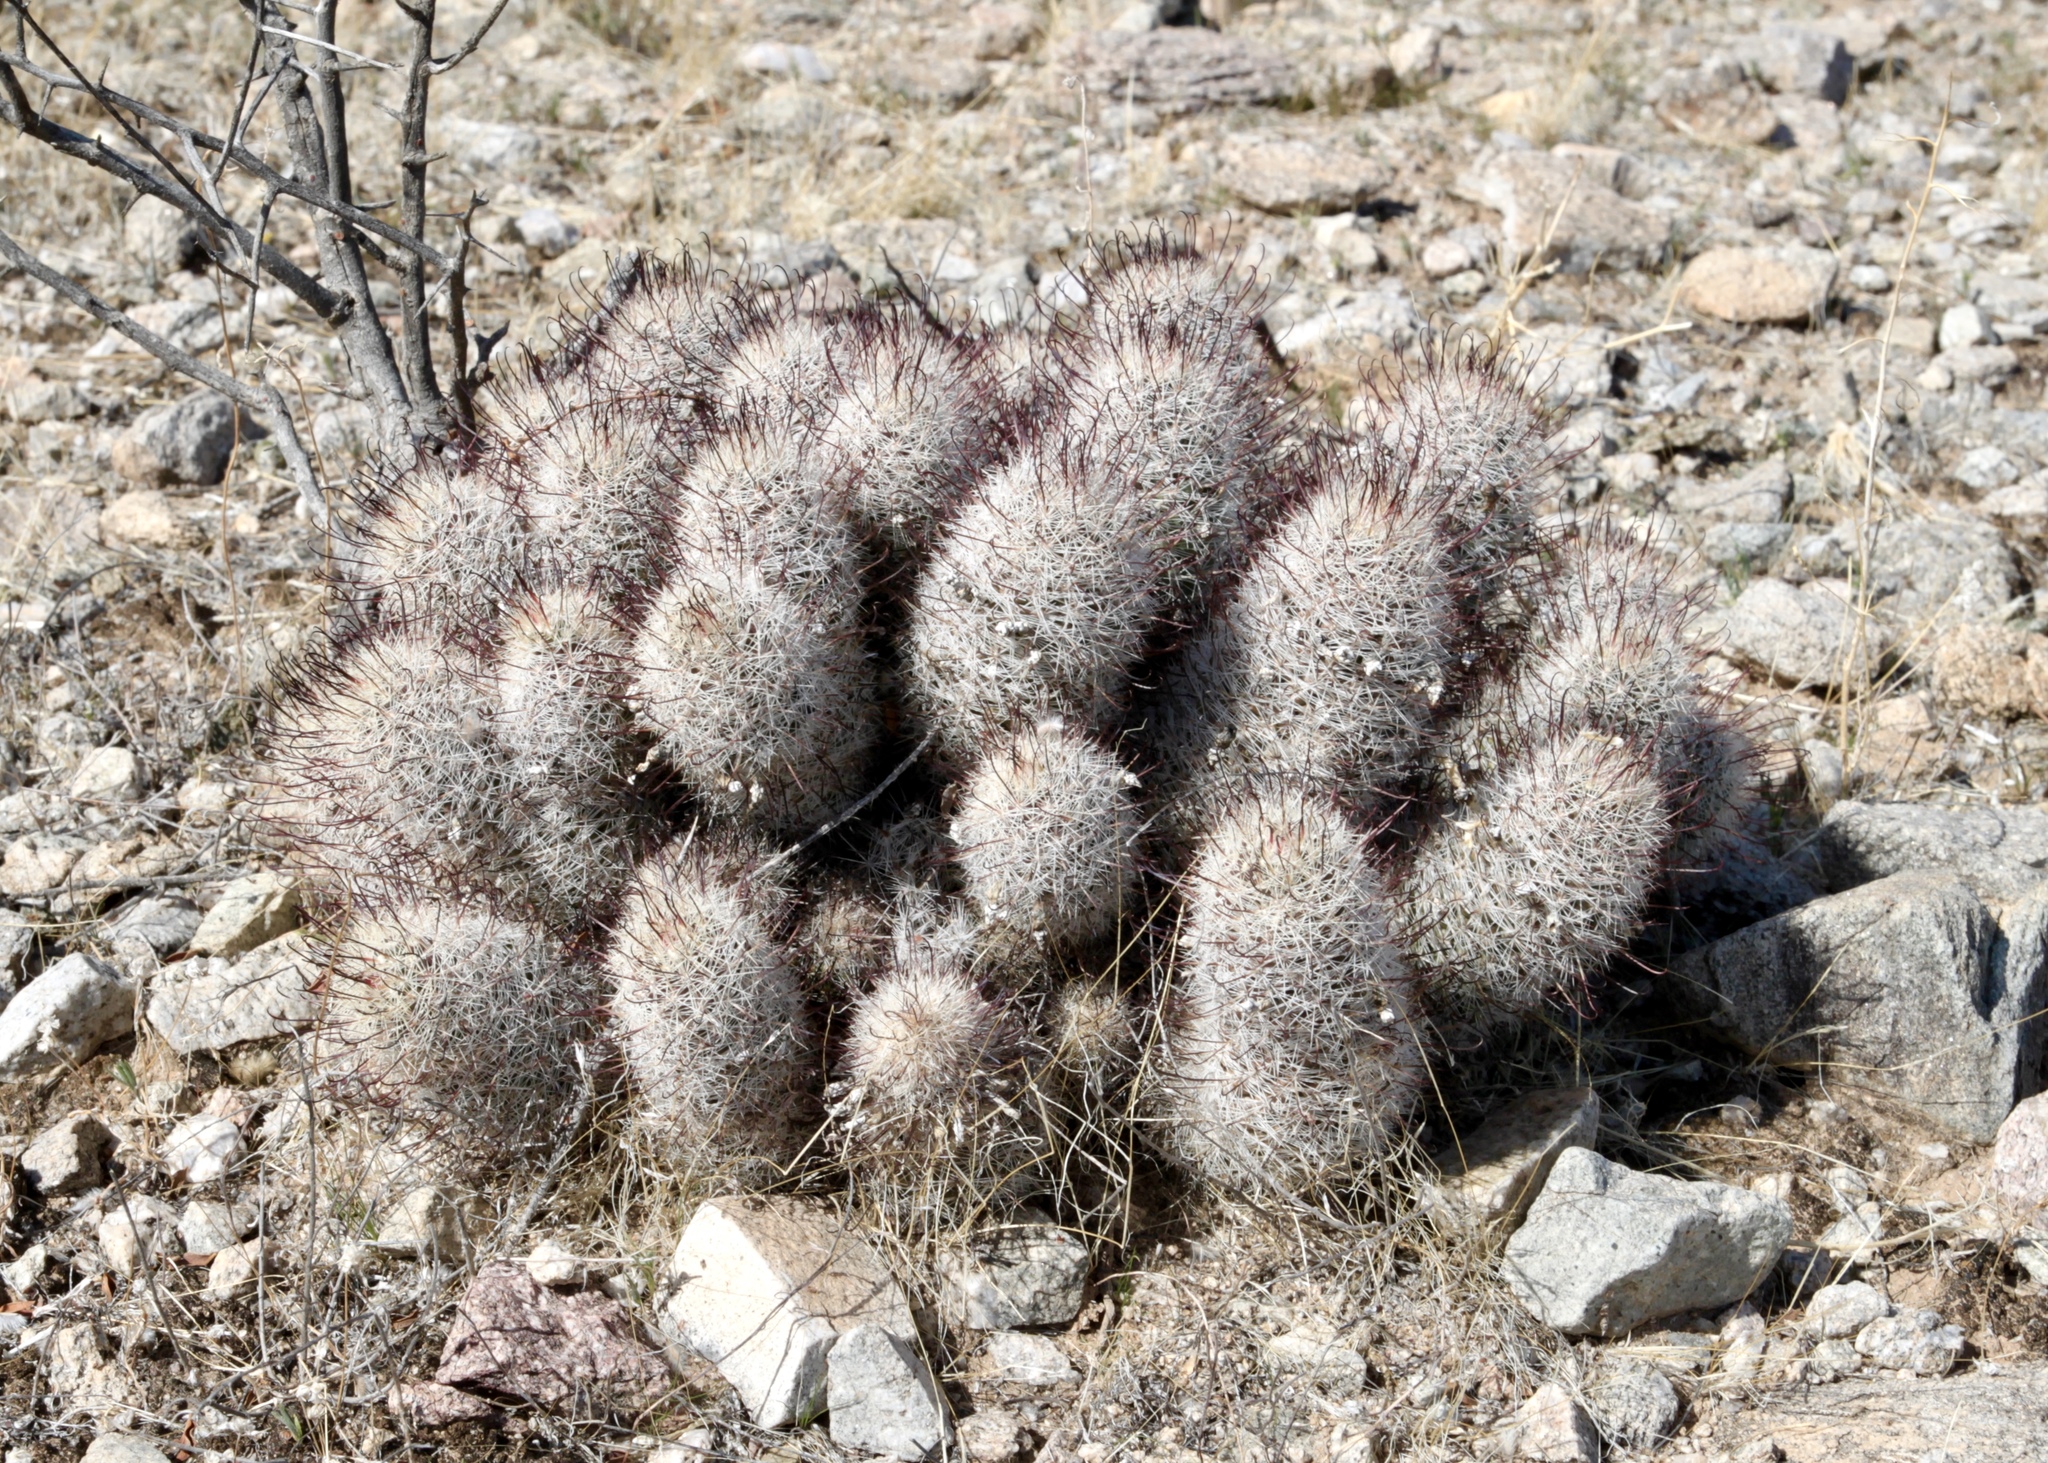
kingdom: Plantae
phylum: Tracheophyta
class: Magnoliopsida
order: Caryophyllales
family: Cactaceae
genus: Cochemiea
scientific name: Cochemiea grahamii
